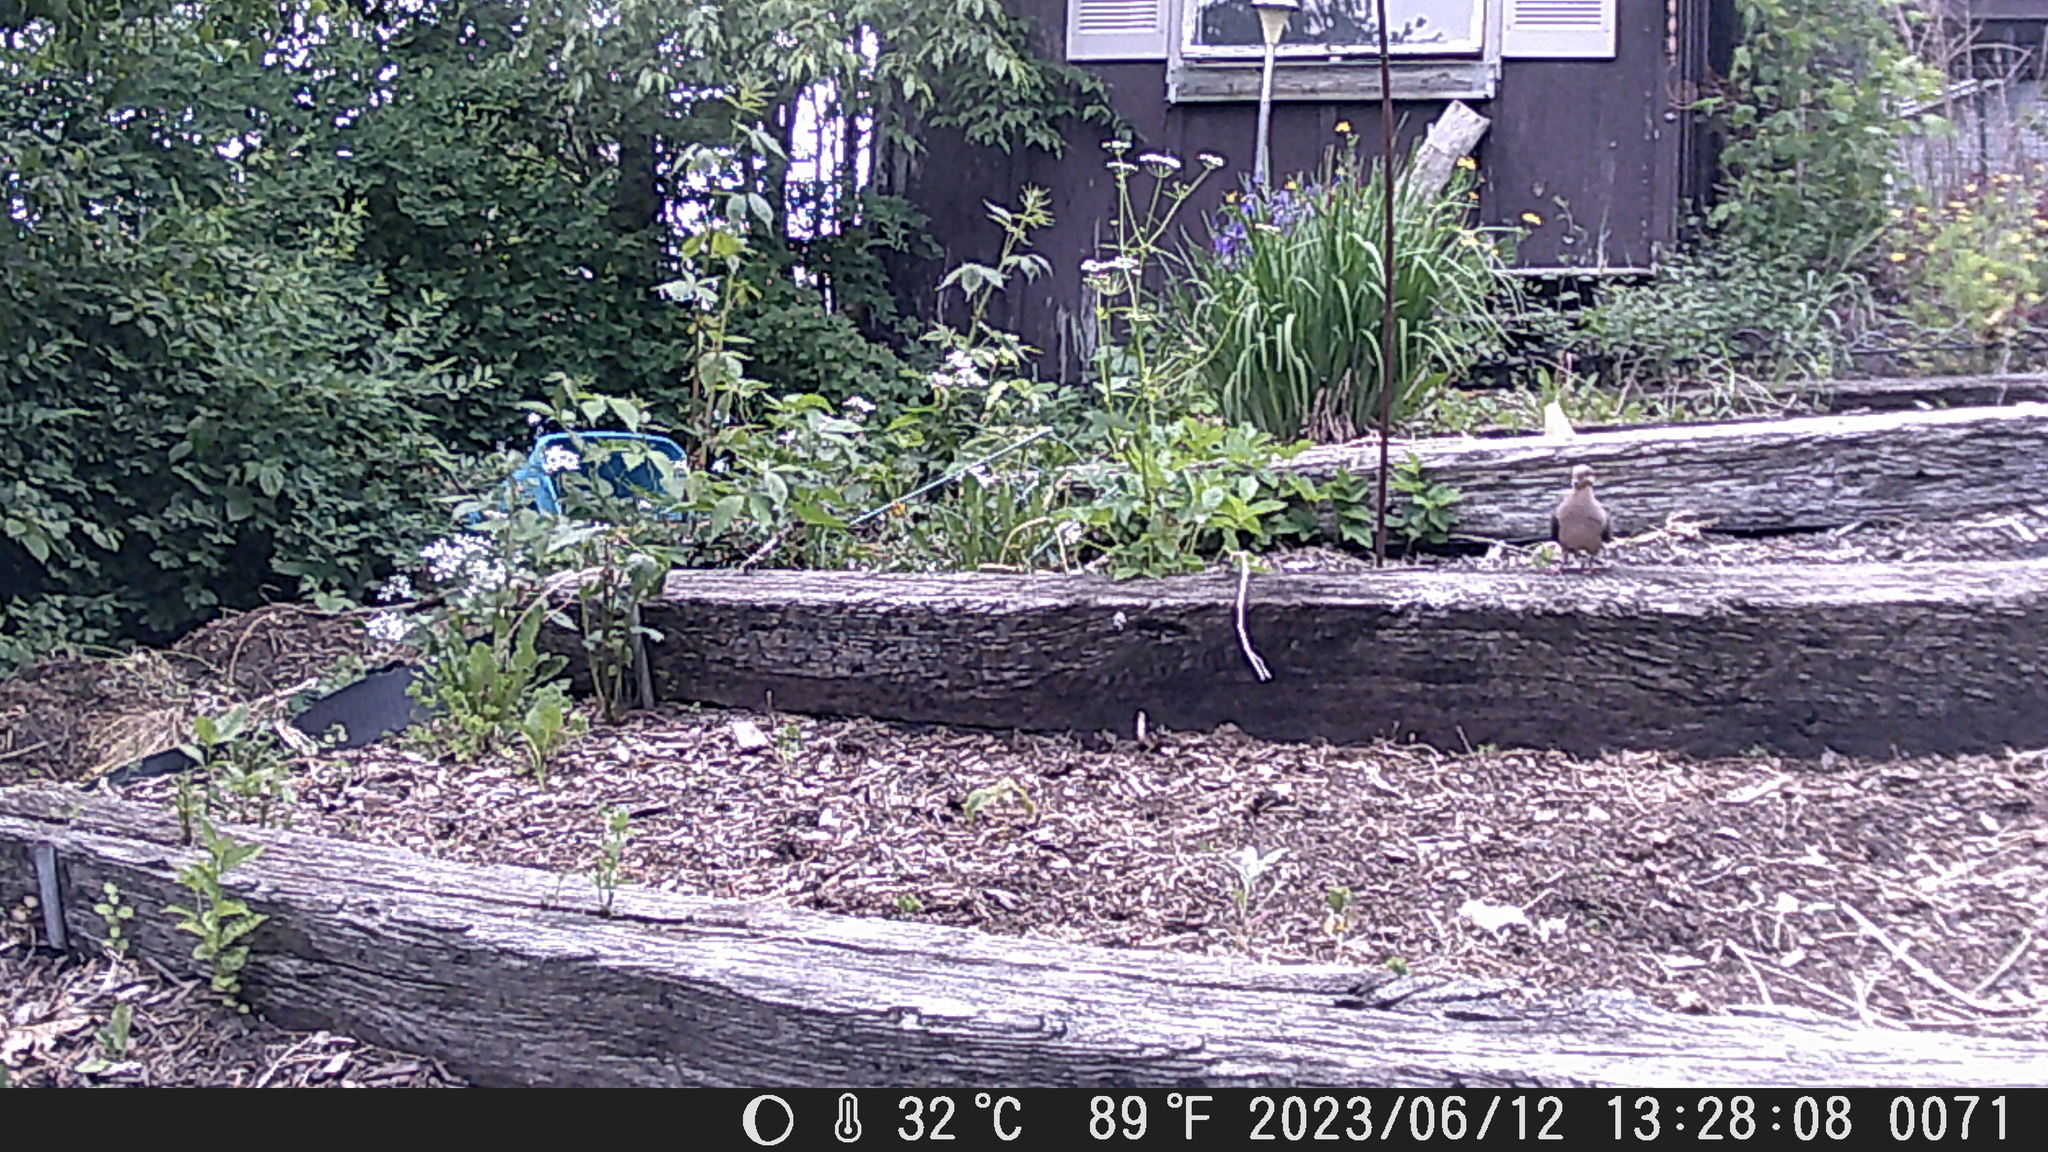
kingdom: Animalia
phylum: Chordata
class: Aves
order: Columbiformes
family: Columbidae
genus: Zenaida
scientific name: Zenaida macroura
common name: Mourning dove
